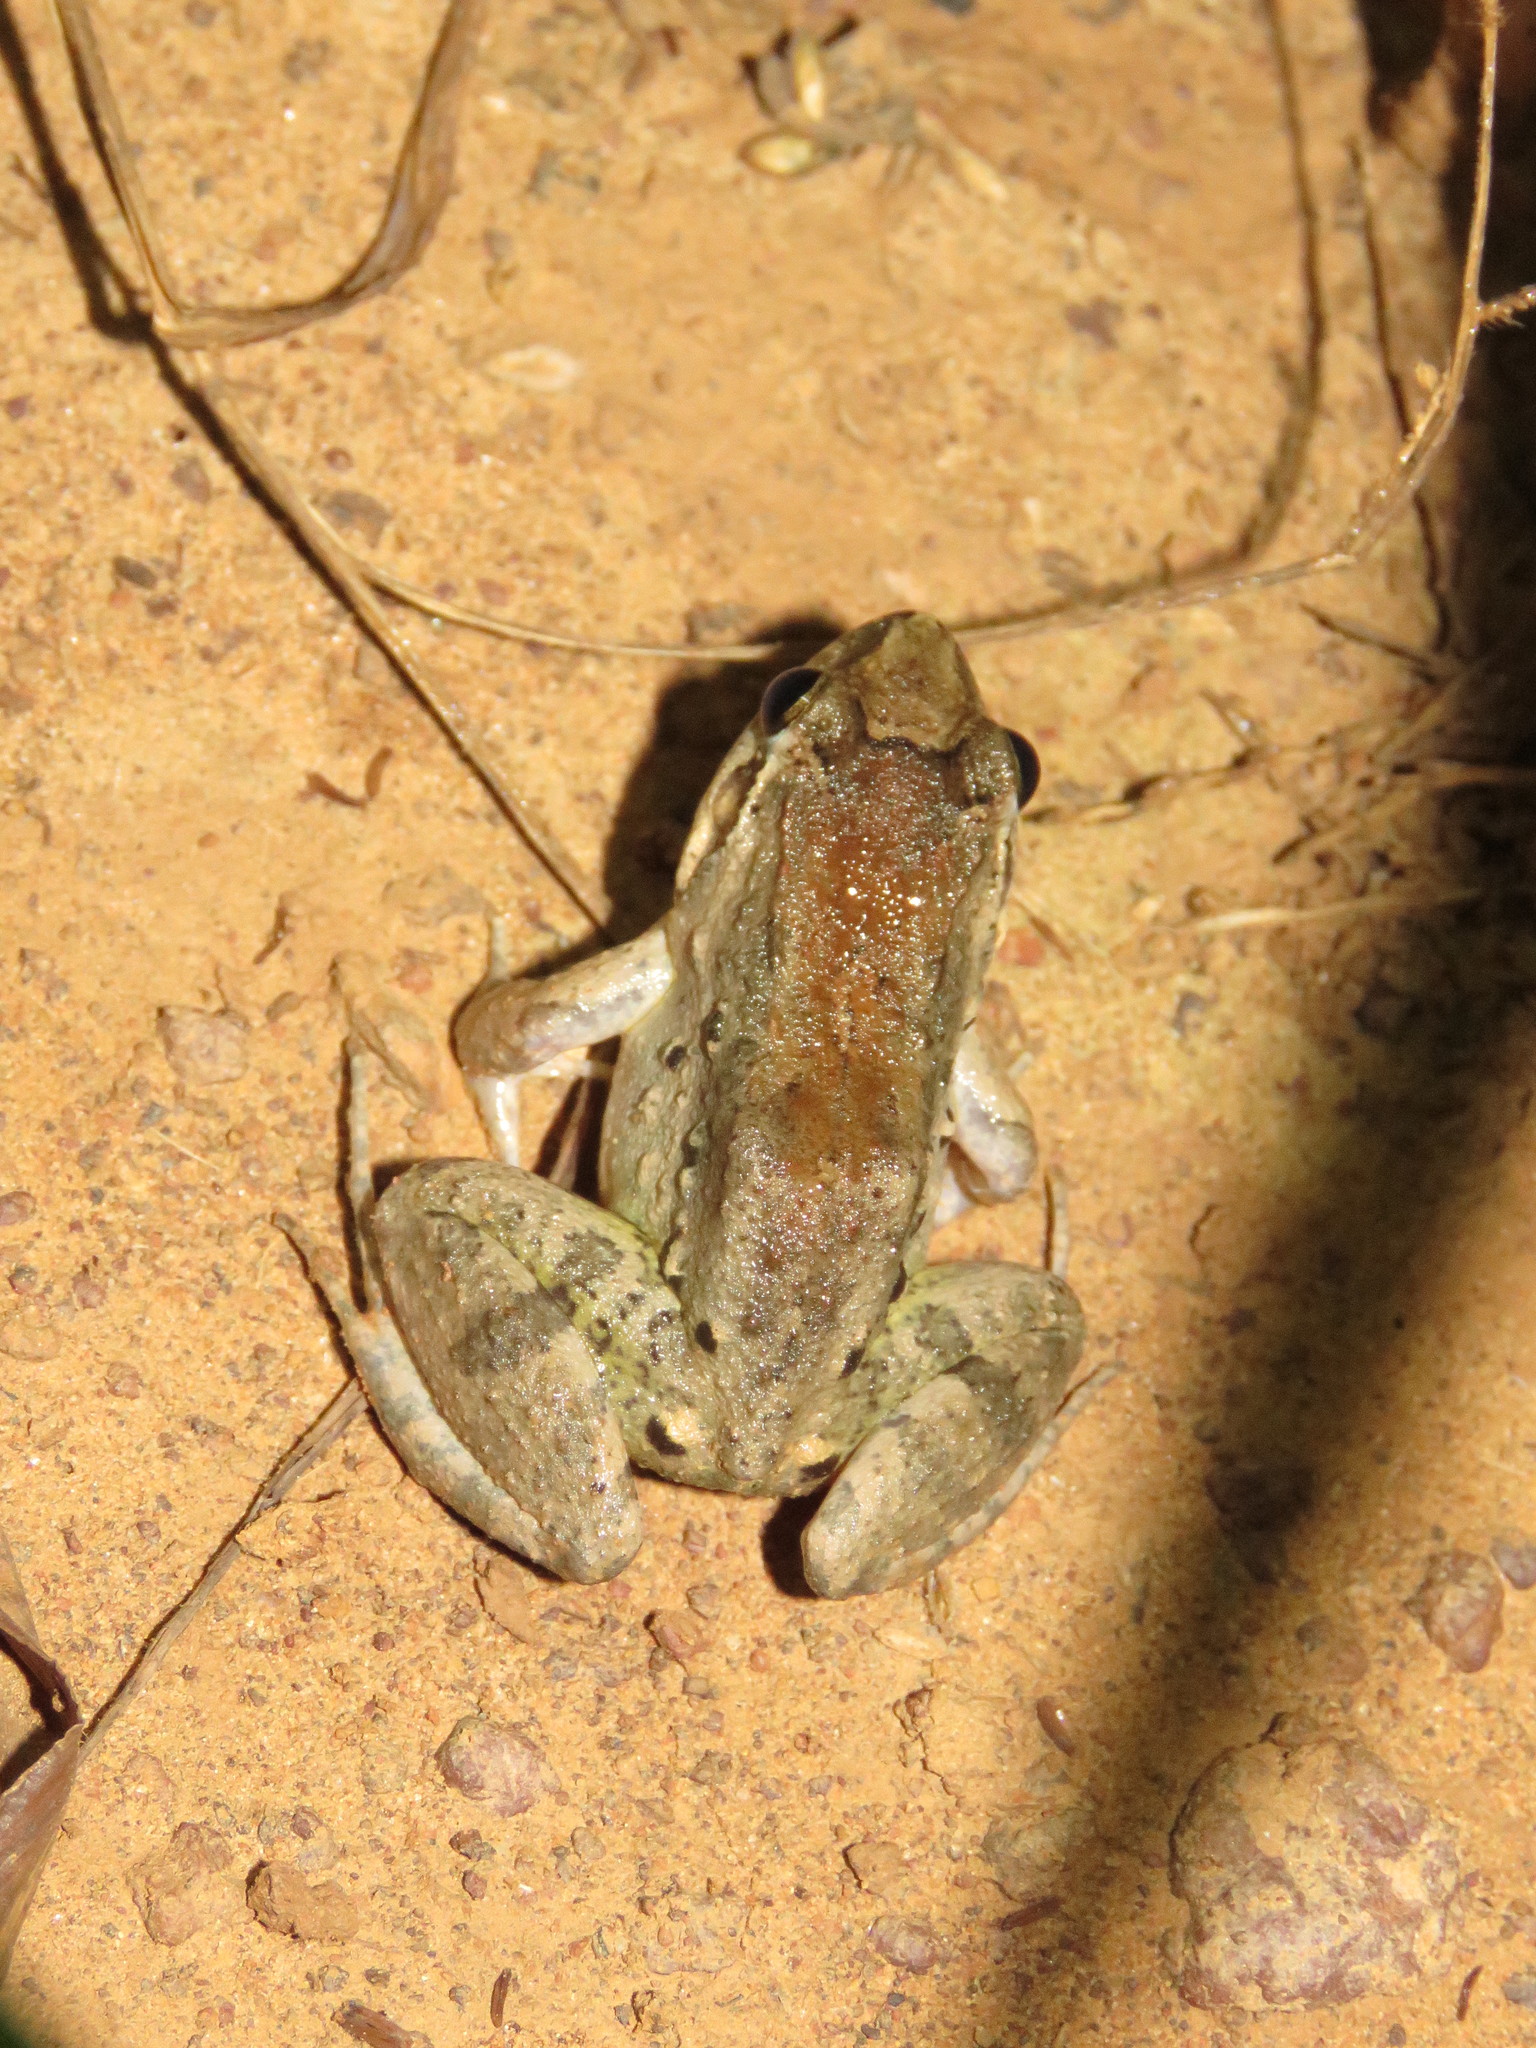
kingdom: Animalia
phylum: Chordata
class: Amphibia
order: Anura
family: Leptodactylidae
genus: Leptodactylus
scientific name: Leptodactylus leptodactyloides
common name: Common thin-toed frog
